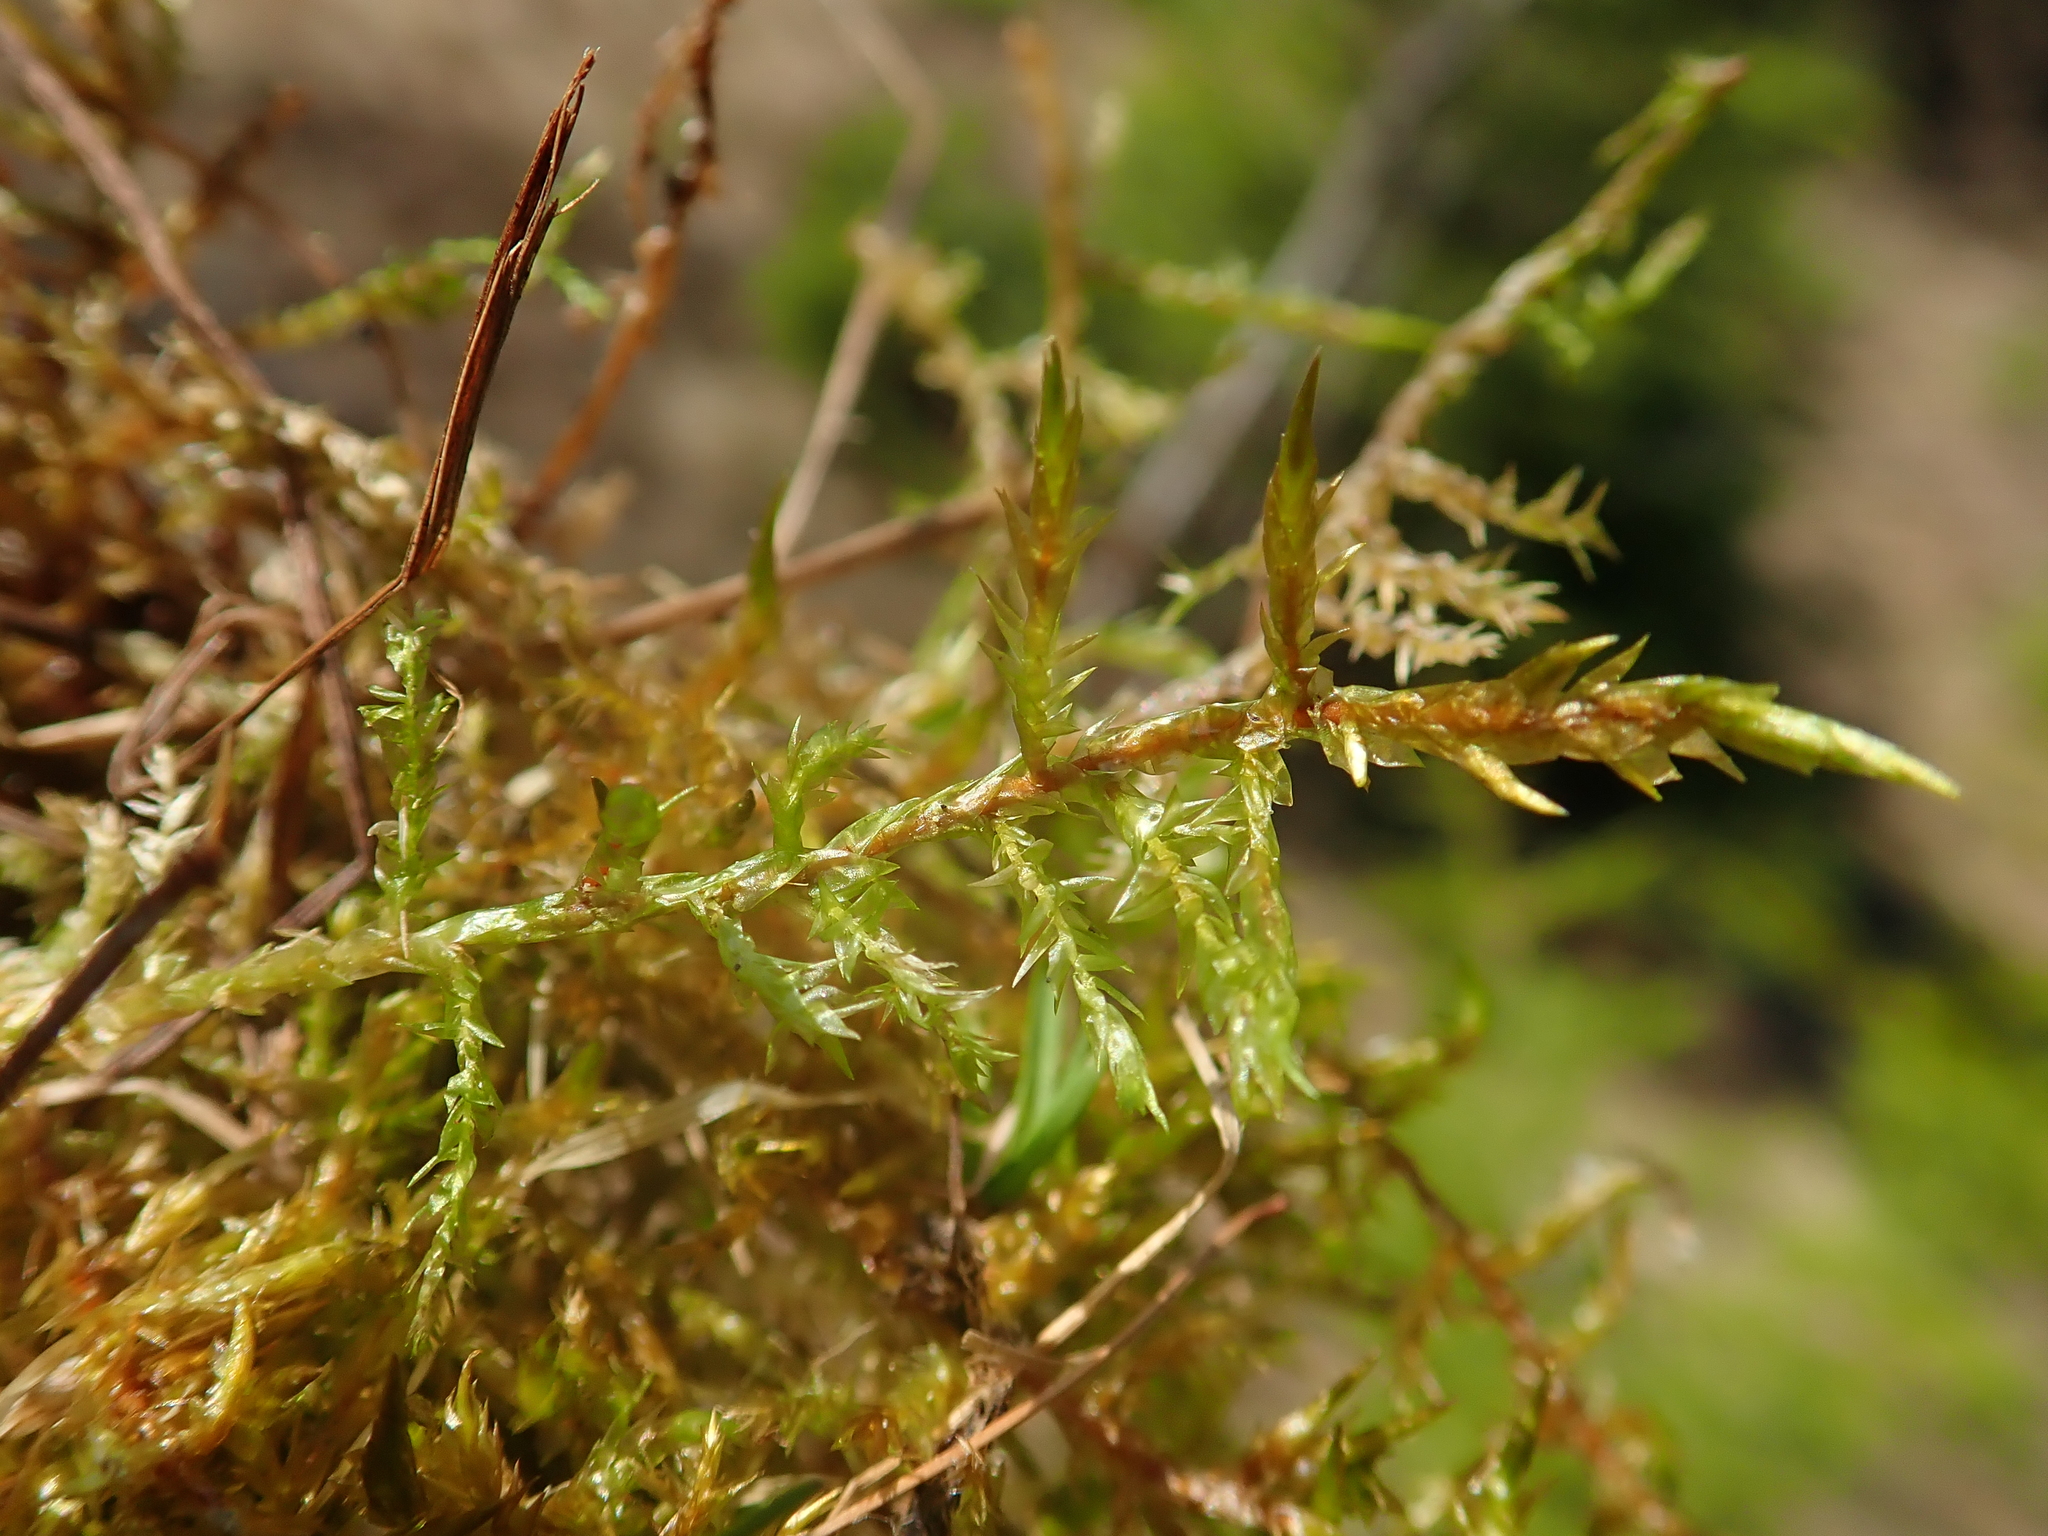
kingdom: Plantae
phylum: Bryophyta
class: Bryopsida
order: Hypnales
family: Pylaisiaceae
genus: Calliergonella
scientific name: Calliergonella cuspidata
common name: Common large wetland moss
